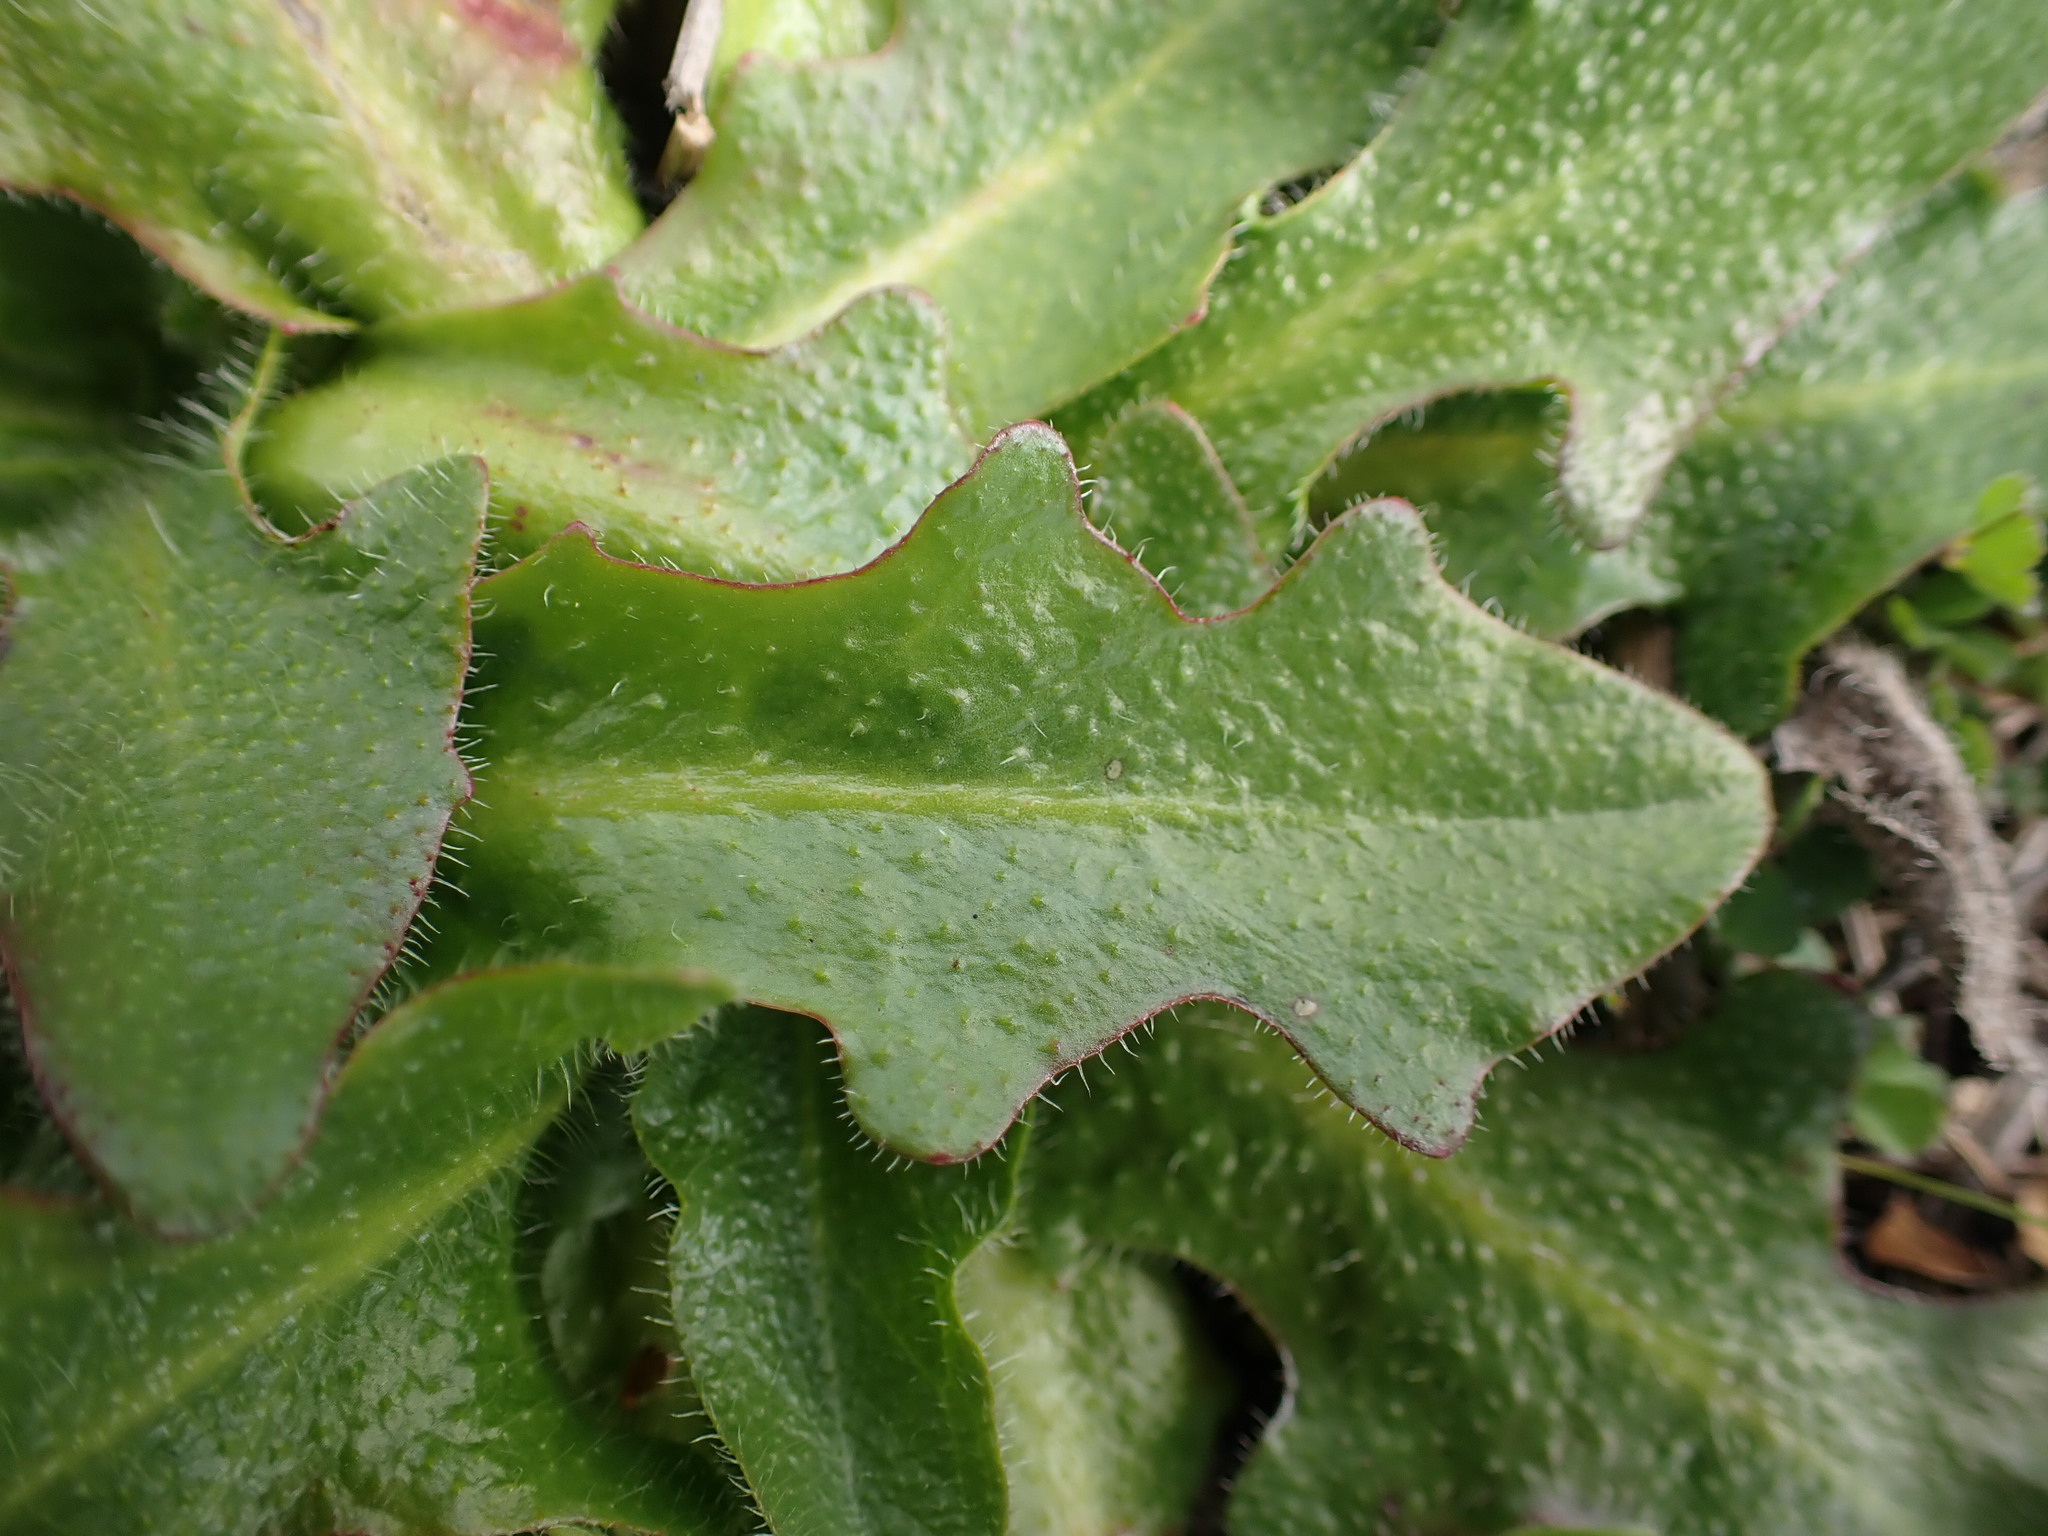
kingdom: Plantae
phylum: Tracheophyta
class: Magnoliopsida
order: Asterales
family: Asteraceae
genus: Hypochaeris
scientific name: Hypochaeris radicata
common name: Flatweed
